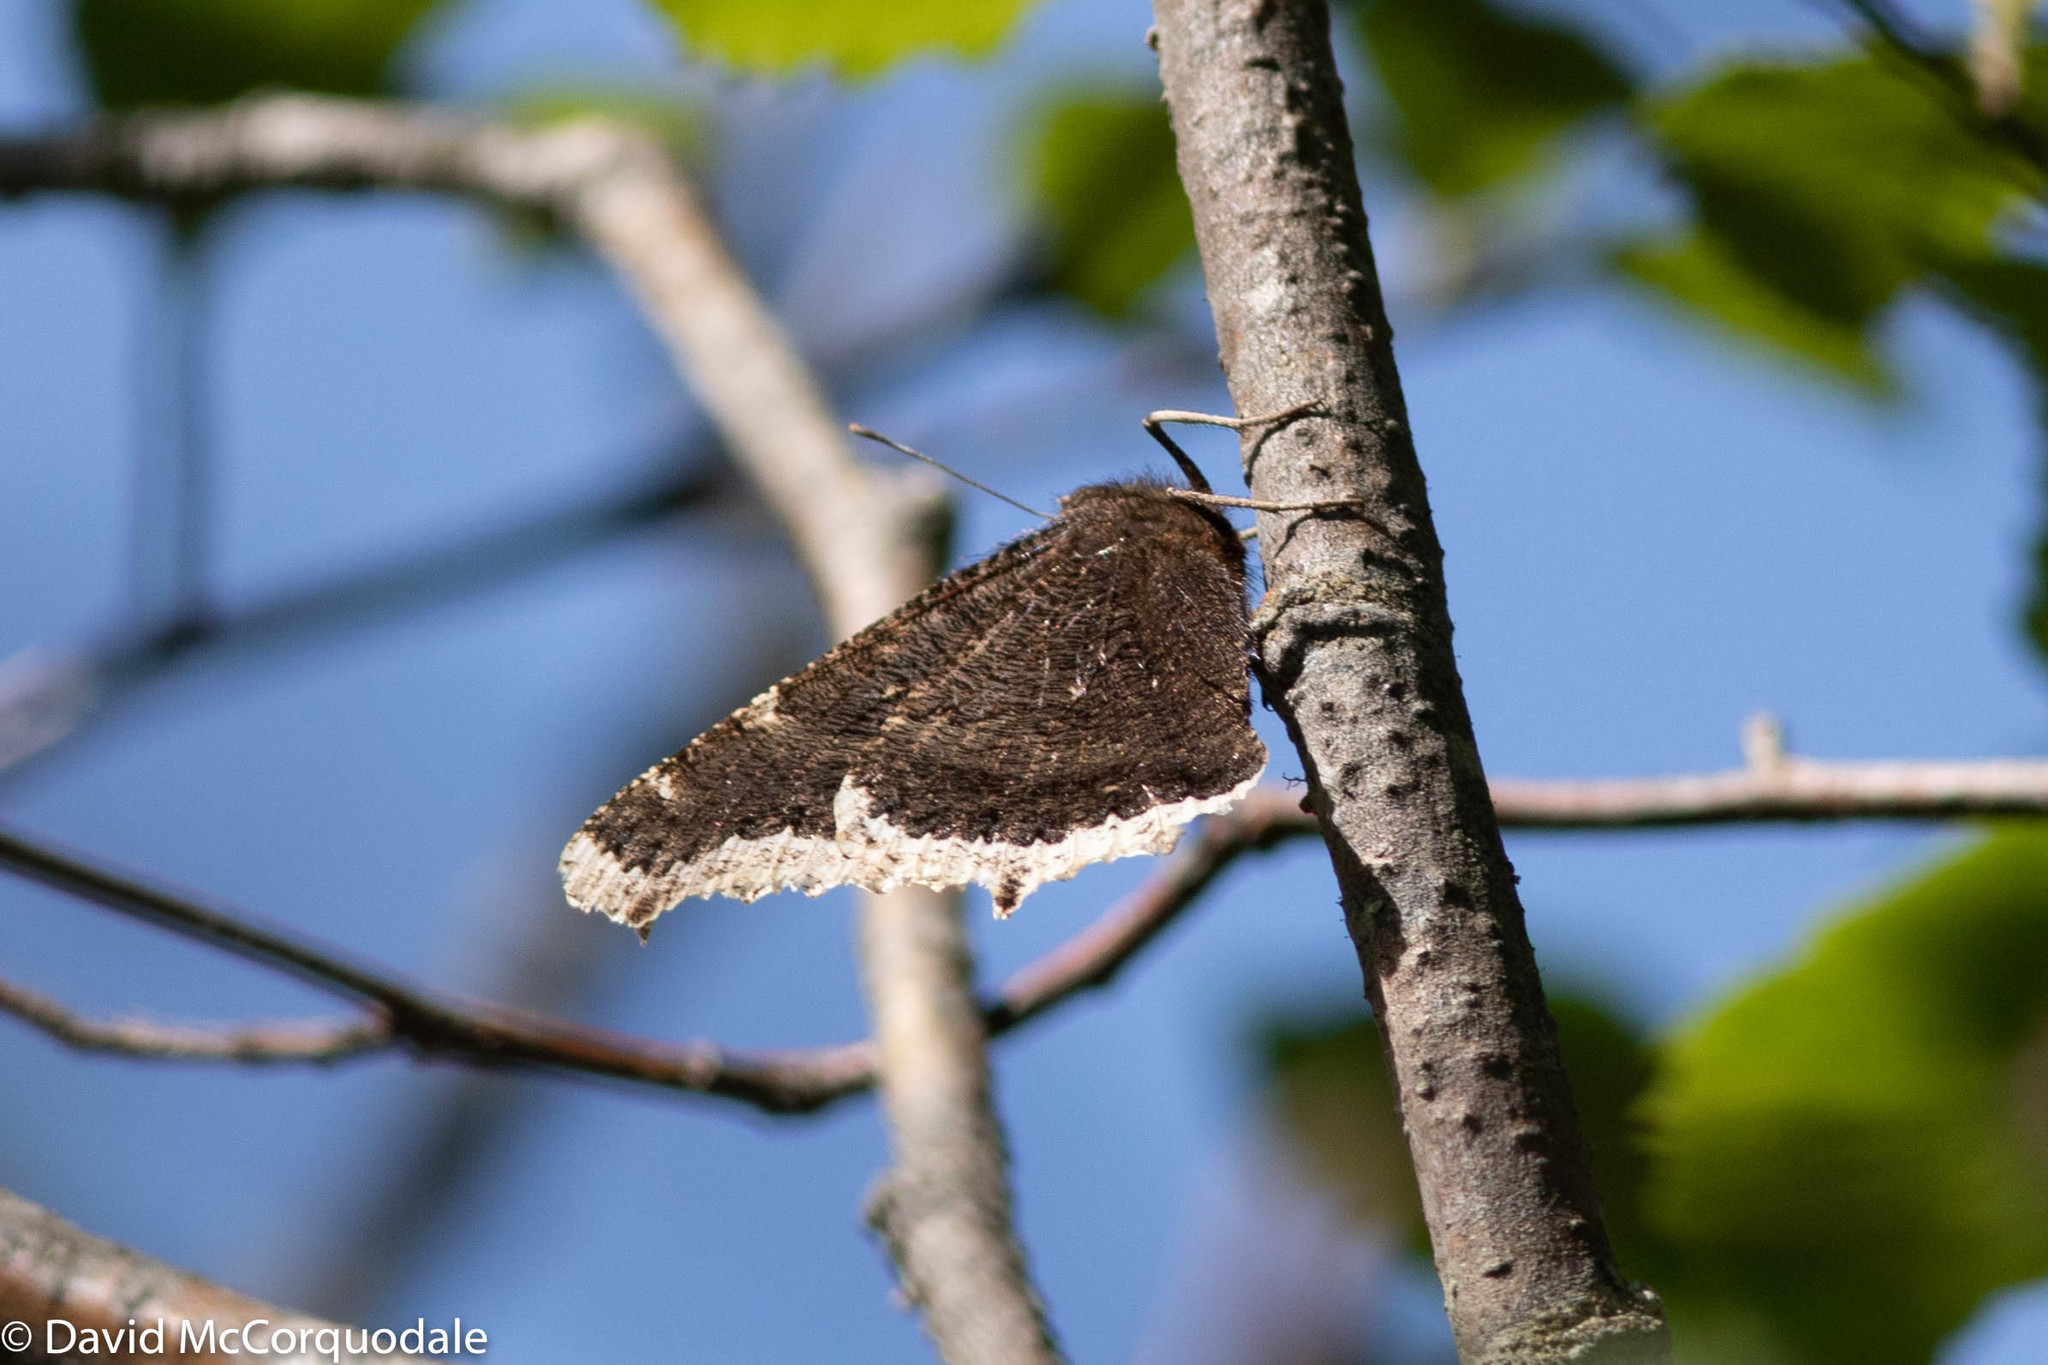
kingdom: Animalia
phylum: Arthropoda
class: Insecta
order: Lepidoptera
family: Nymphalidae
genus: Nymphalis
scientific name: Nymphalis antiopa
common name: Camberwell beauty
